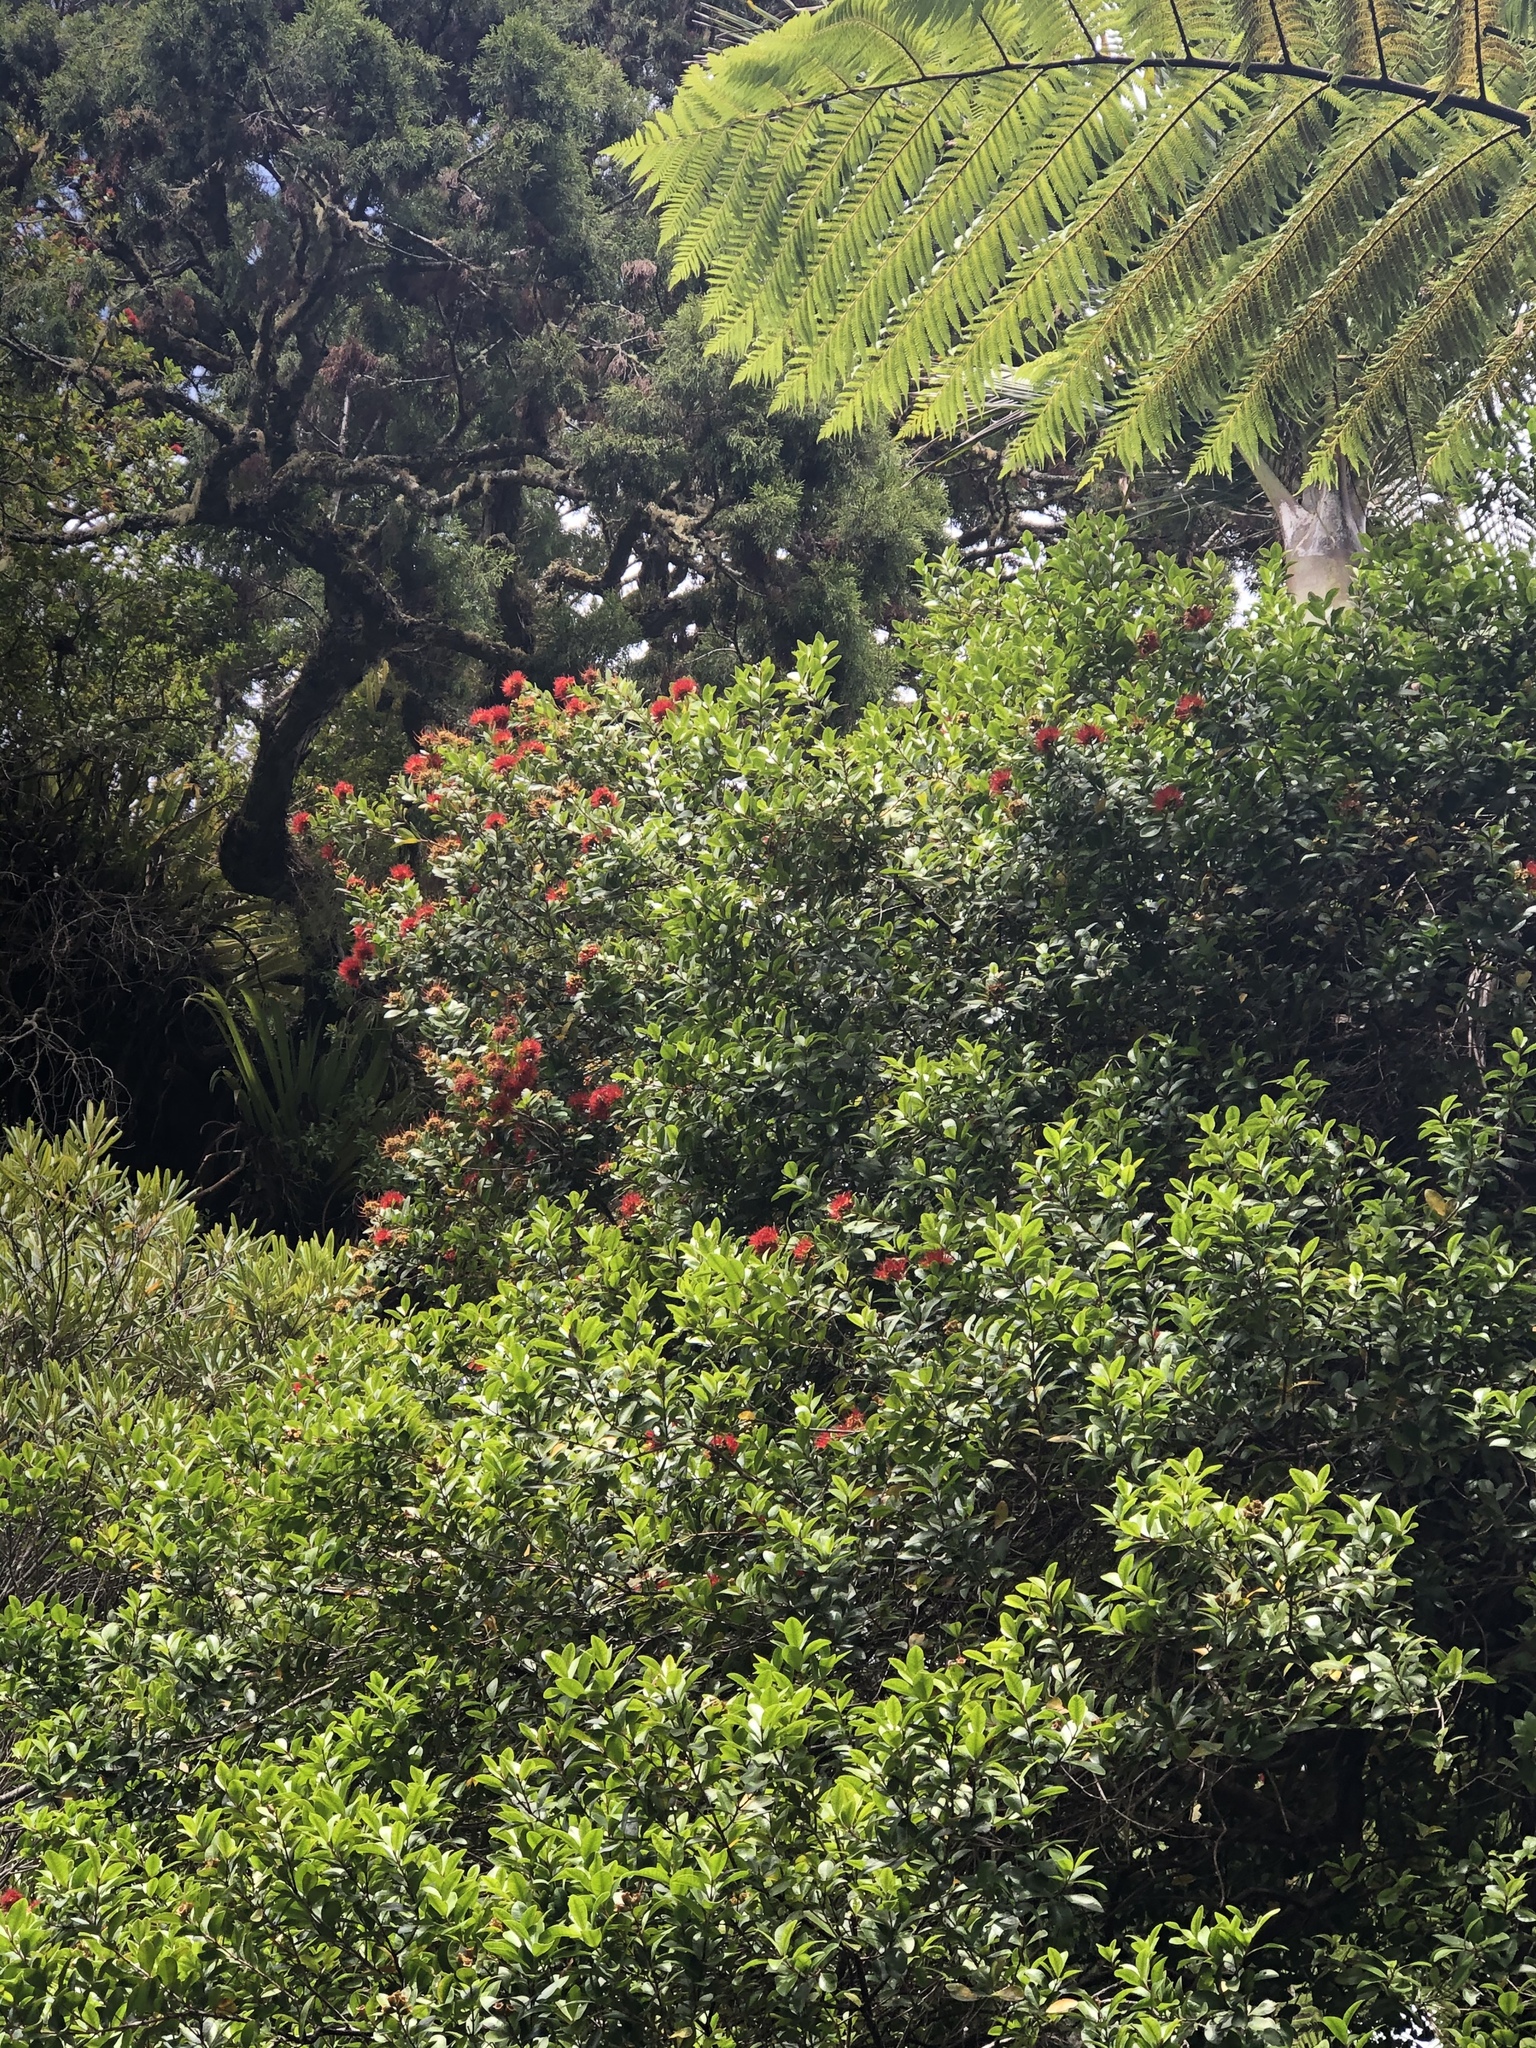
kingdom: Plantae
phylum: Tracheophyta
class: Magnoliopsida
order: Myrtales
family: Myrtaceae
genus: Metrosideros
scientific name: Metrosideros fulgens
